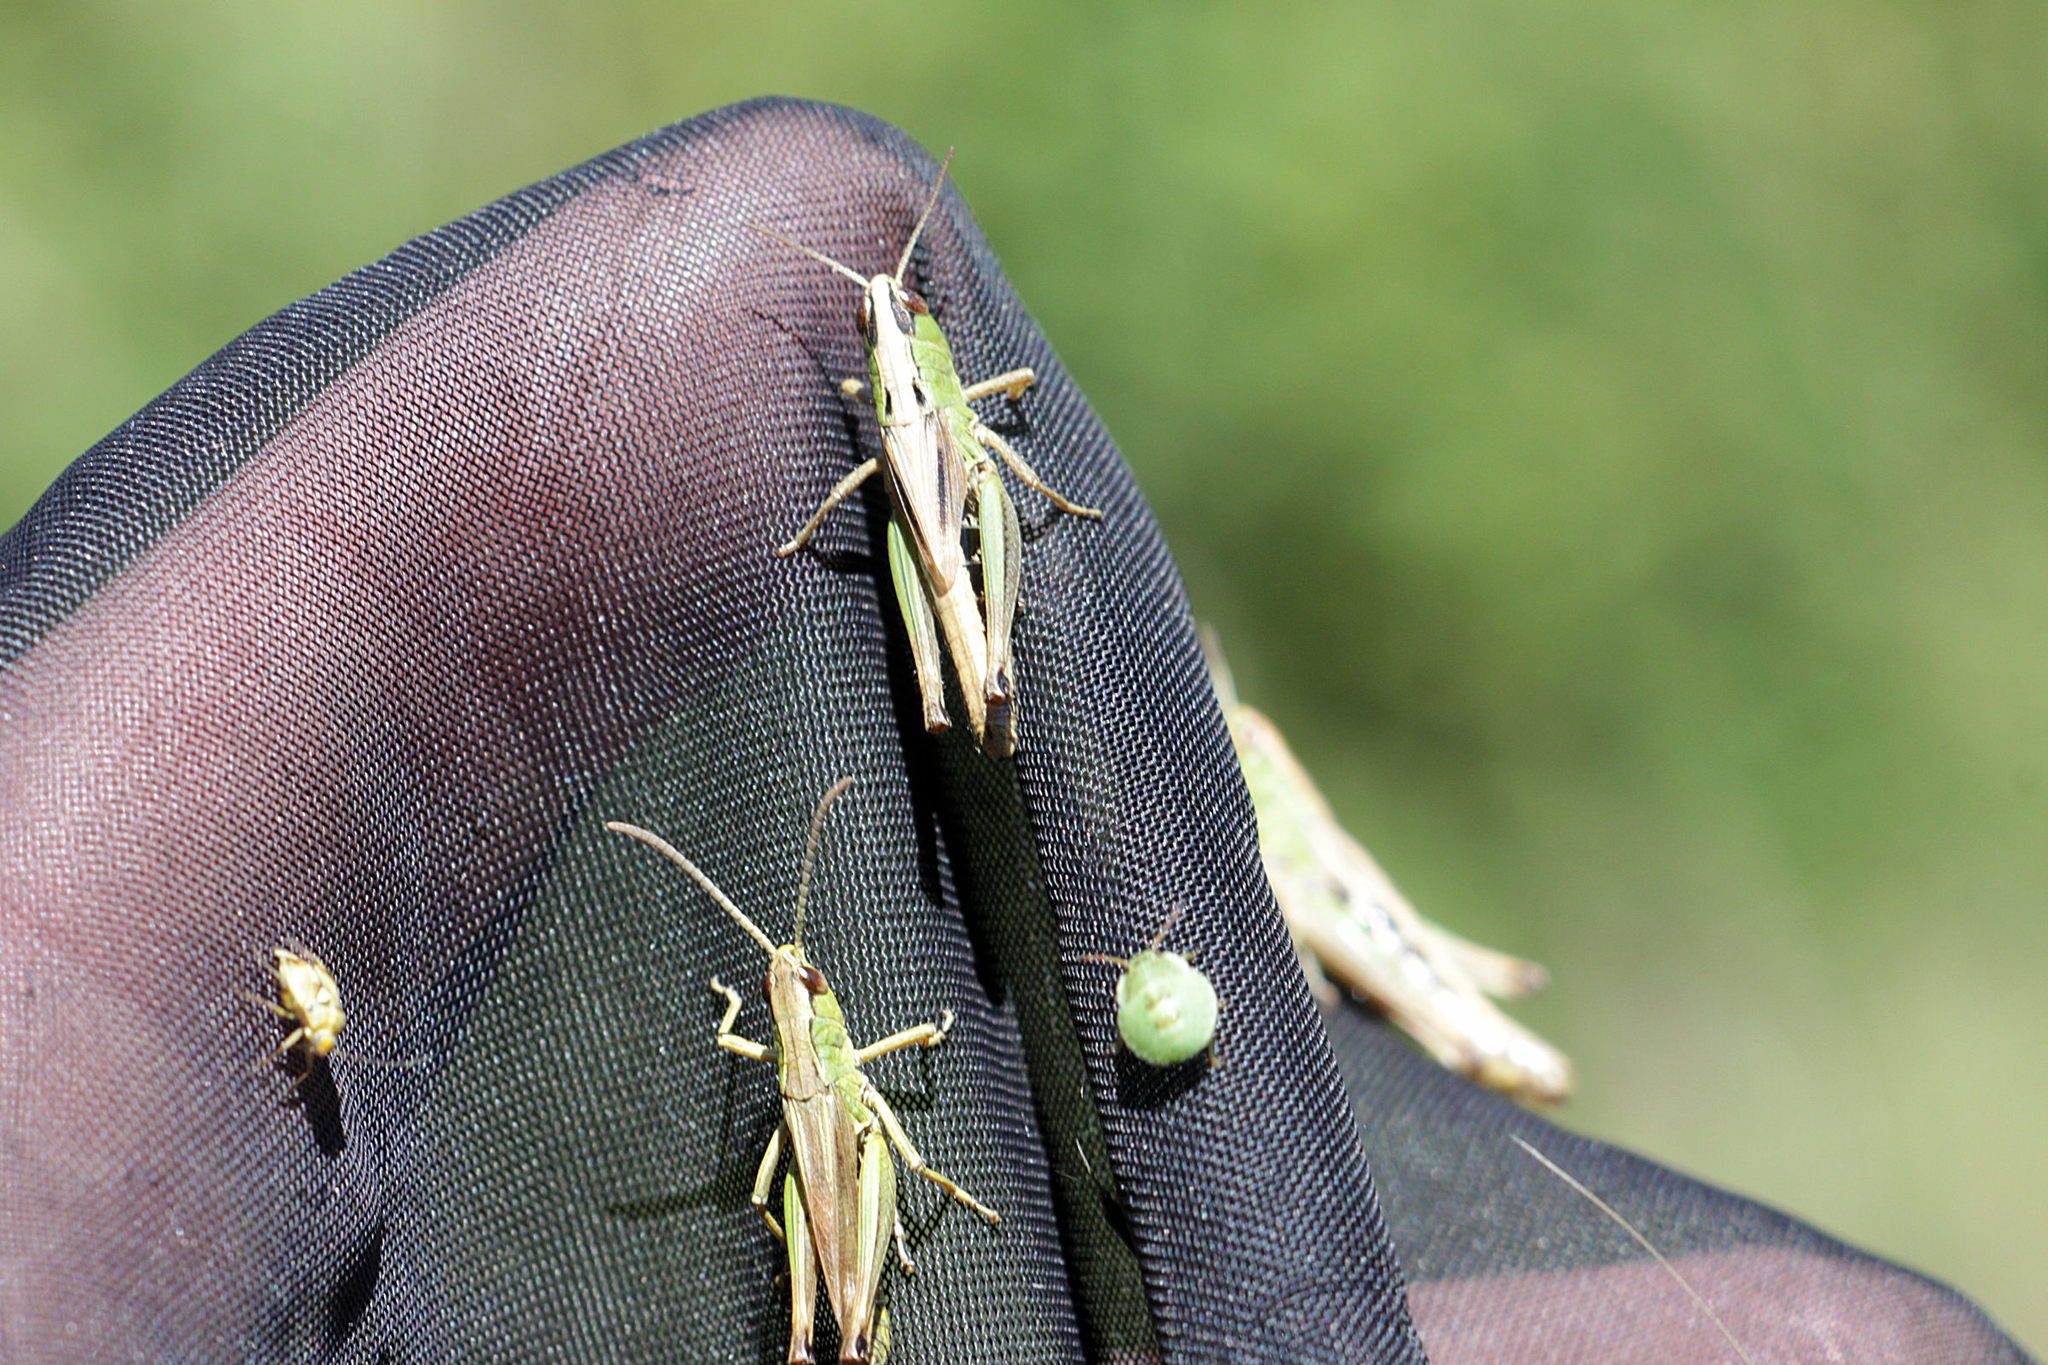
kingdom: Animalia
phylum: Arthropoda
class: Insecta
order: Orthoptera
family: Acrididae
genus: Pseudochorthippus
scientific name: Pseudochorthippus parallelus
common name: Meadow grasshopper
